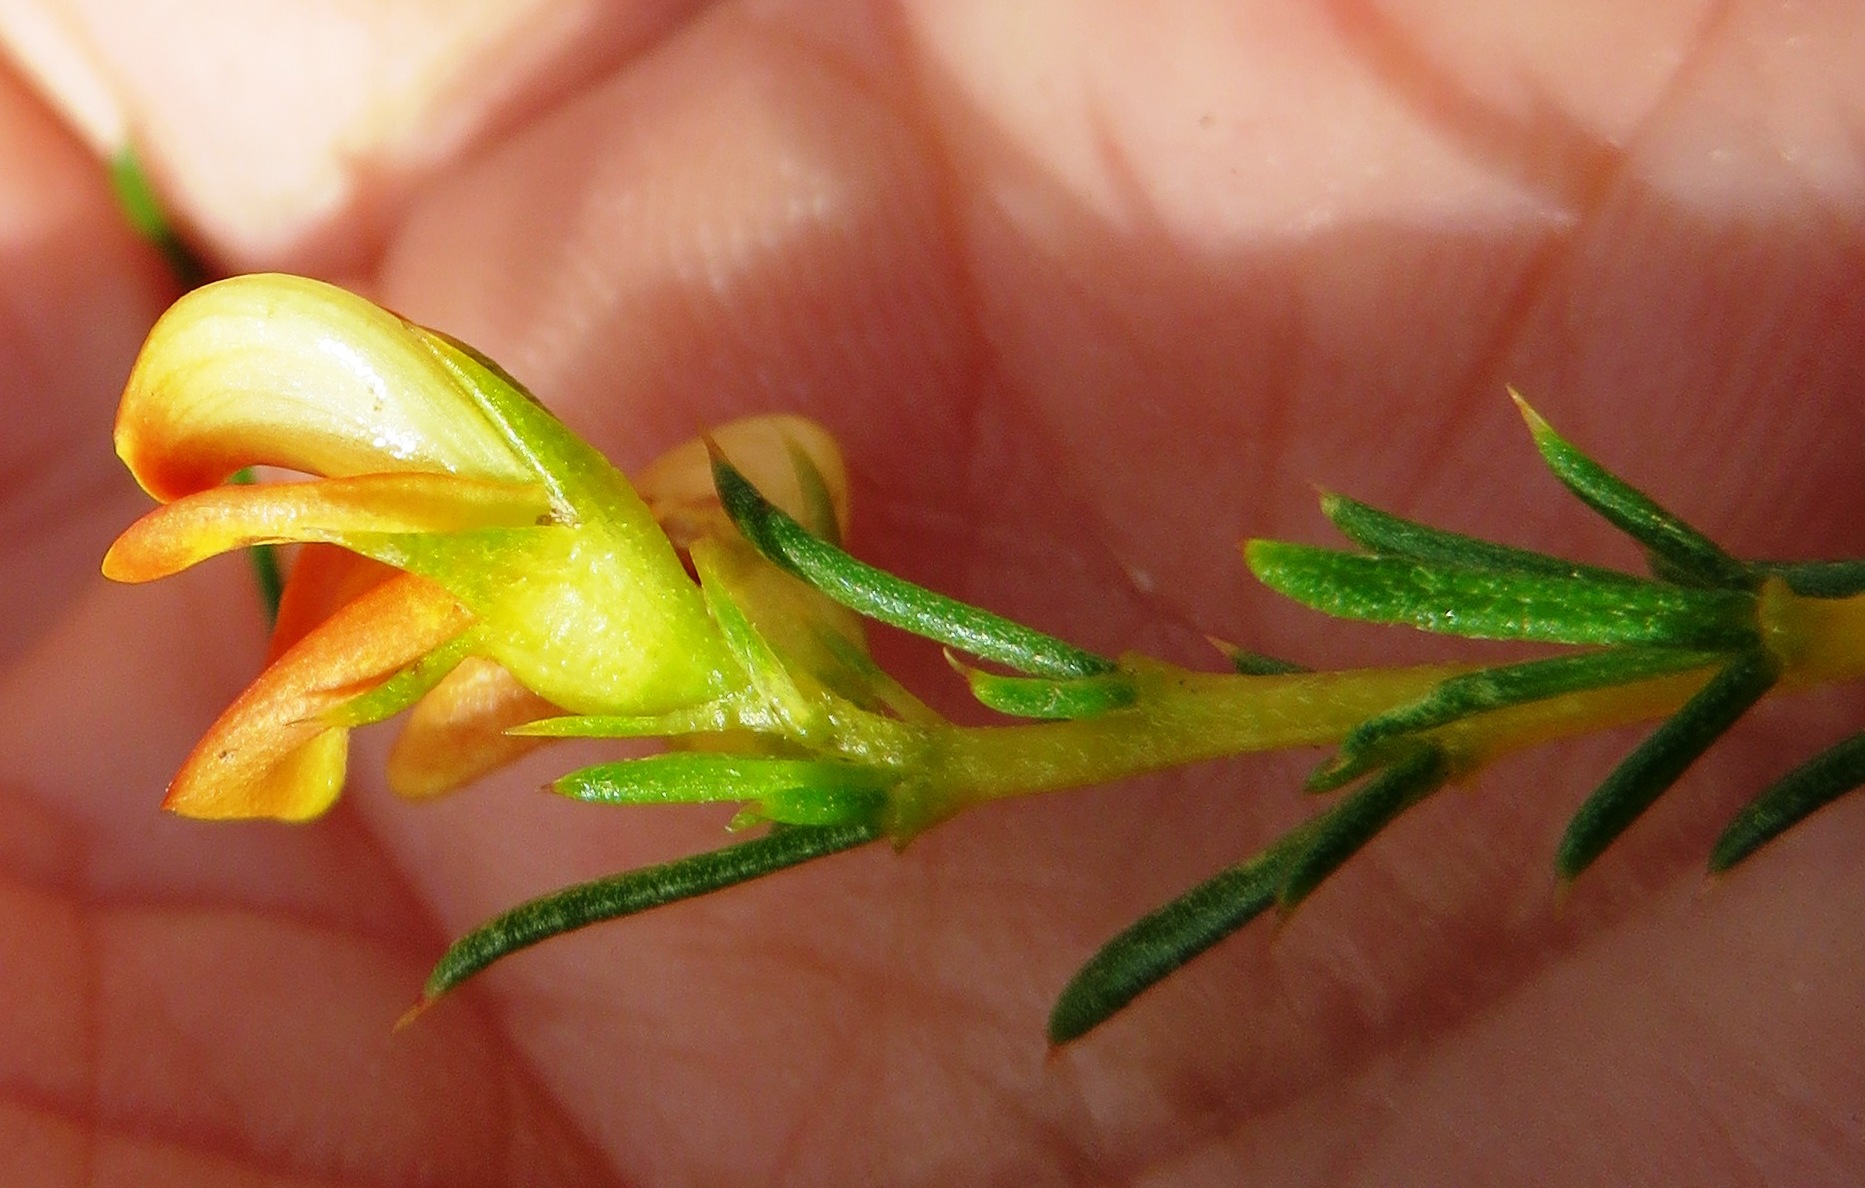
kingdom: Plantae
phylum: Tracheophyta
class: Magnoliopsida
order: Fabales
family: Fabaceae
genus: Aspalathus
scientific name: Aspalathus abietina
